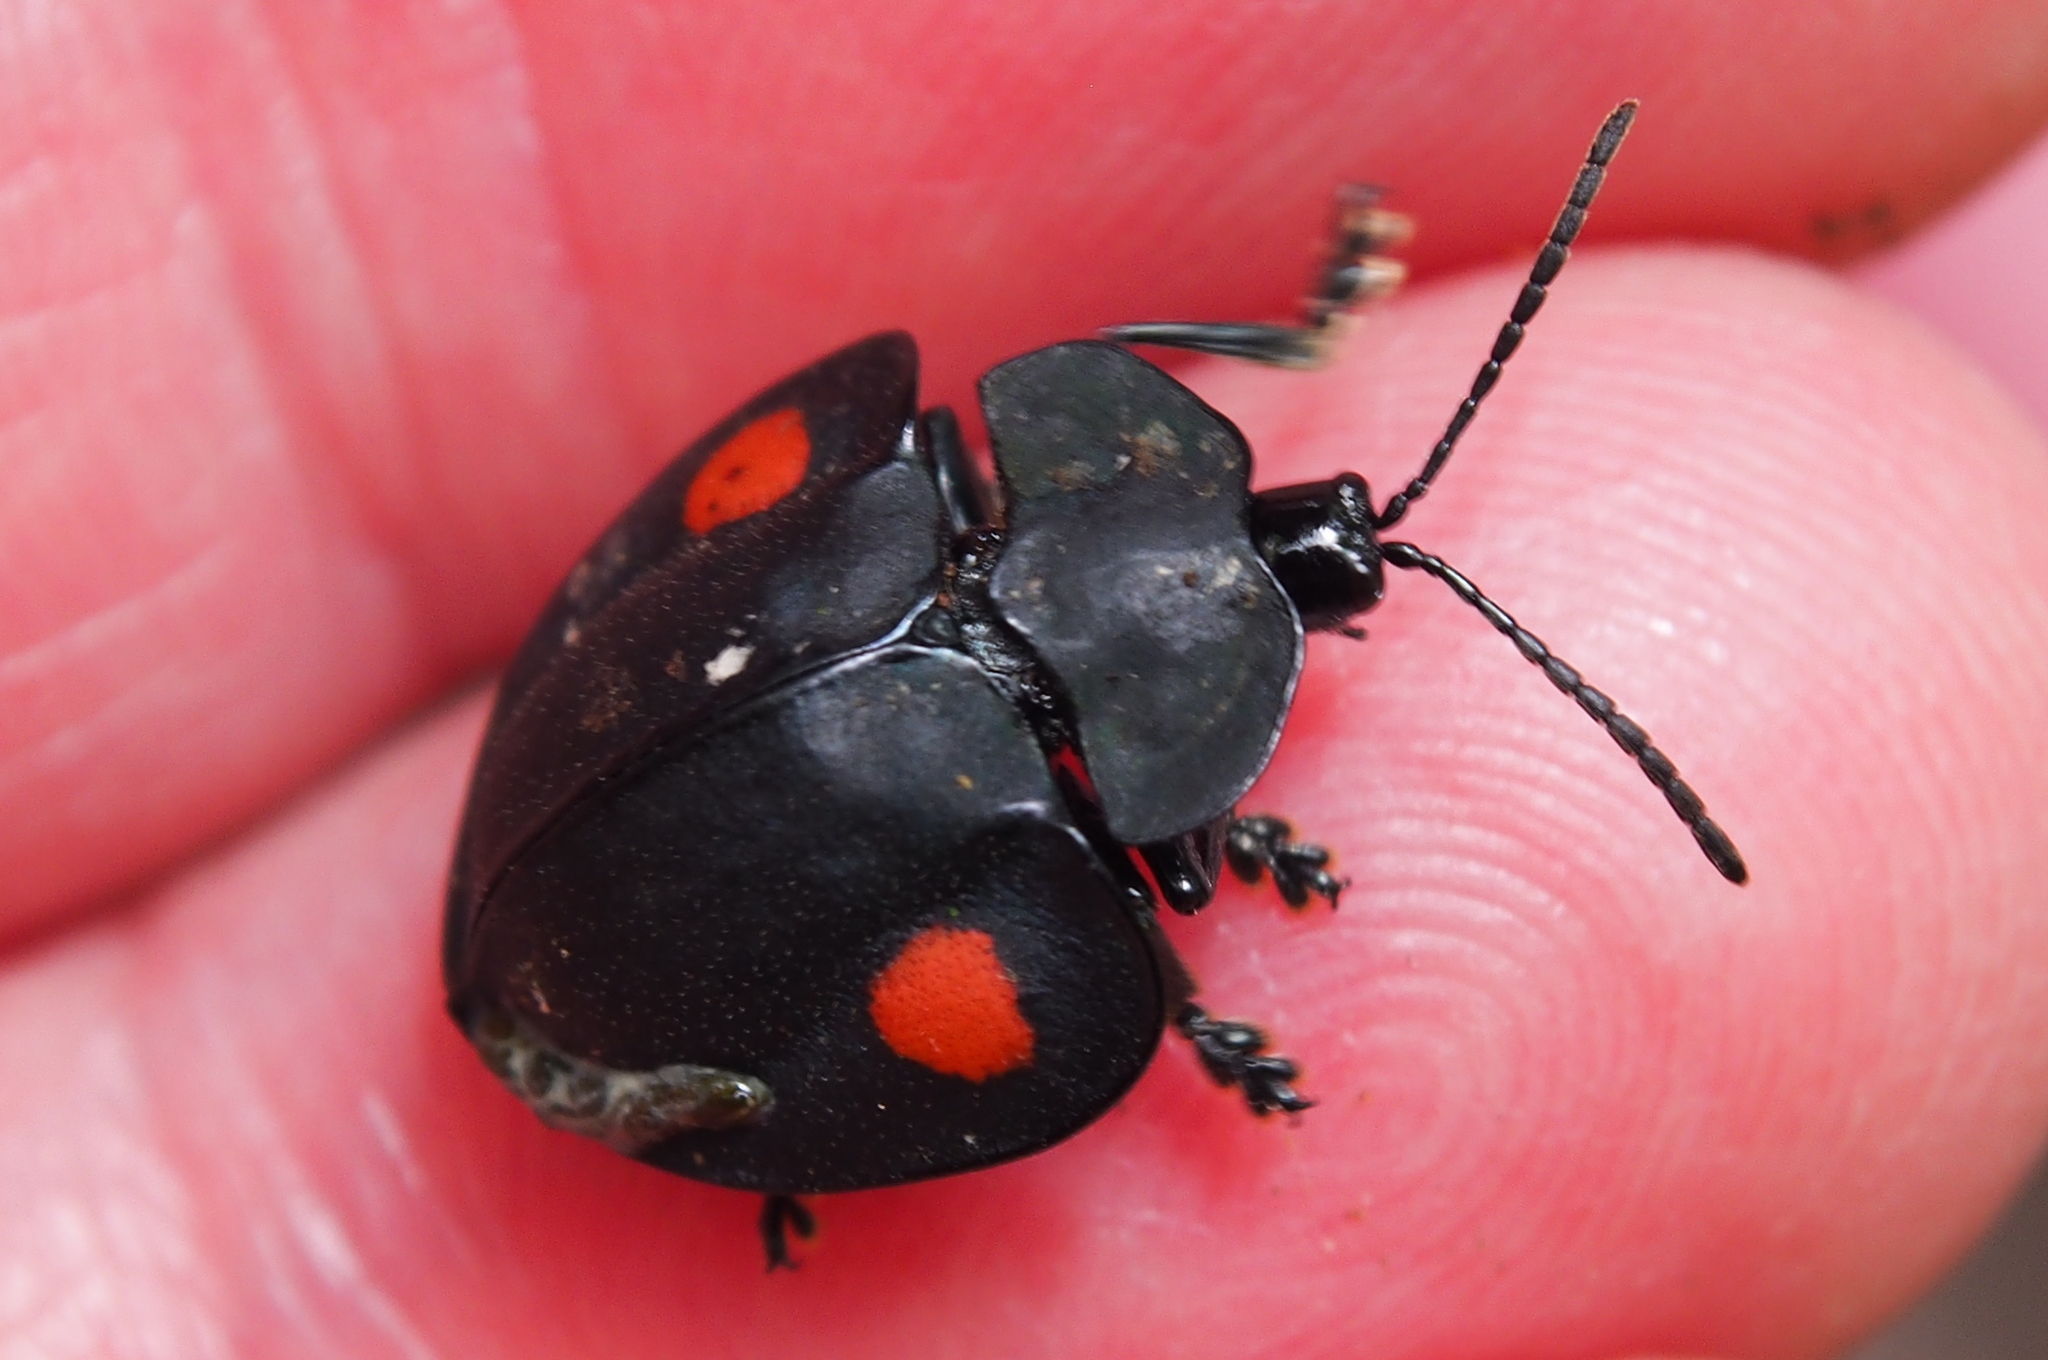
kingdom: Animalia
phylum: Arthropoda
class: Insecta
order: Coleoptera
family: Chrysomelidae
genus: Stolas
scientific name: Stolas cucullata
